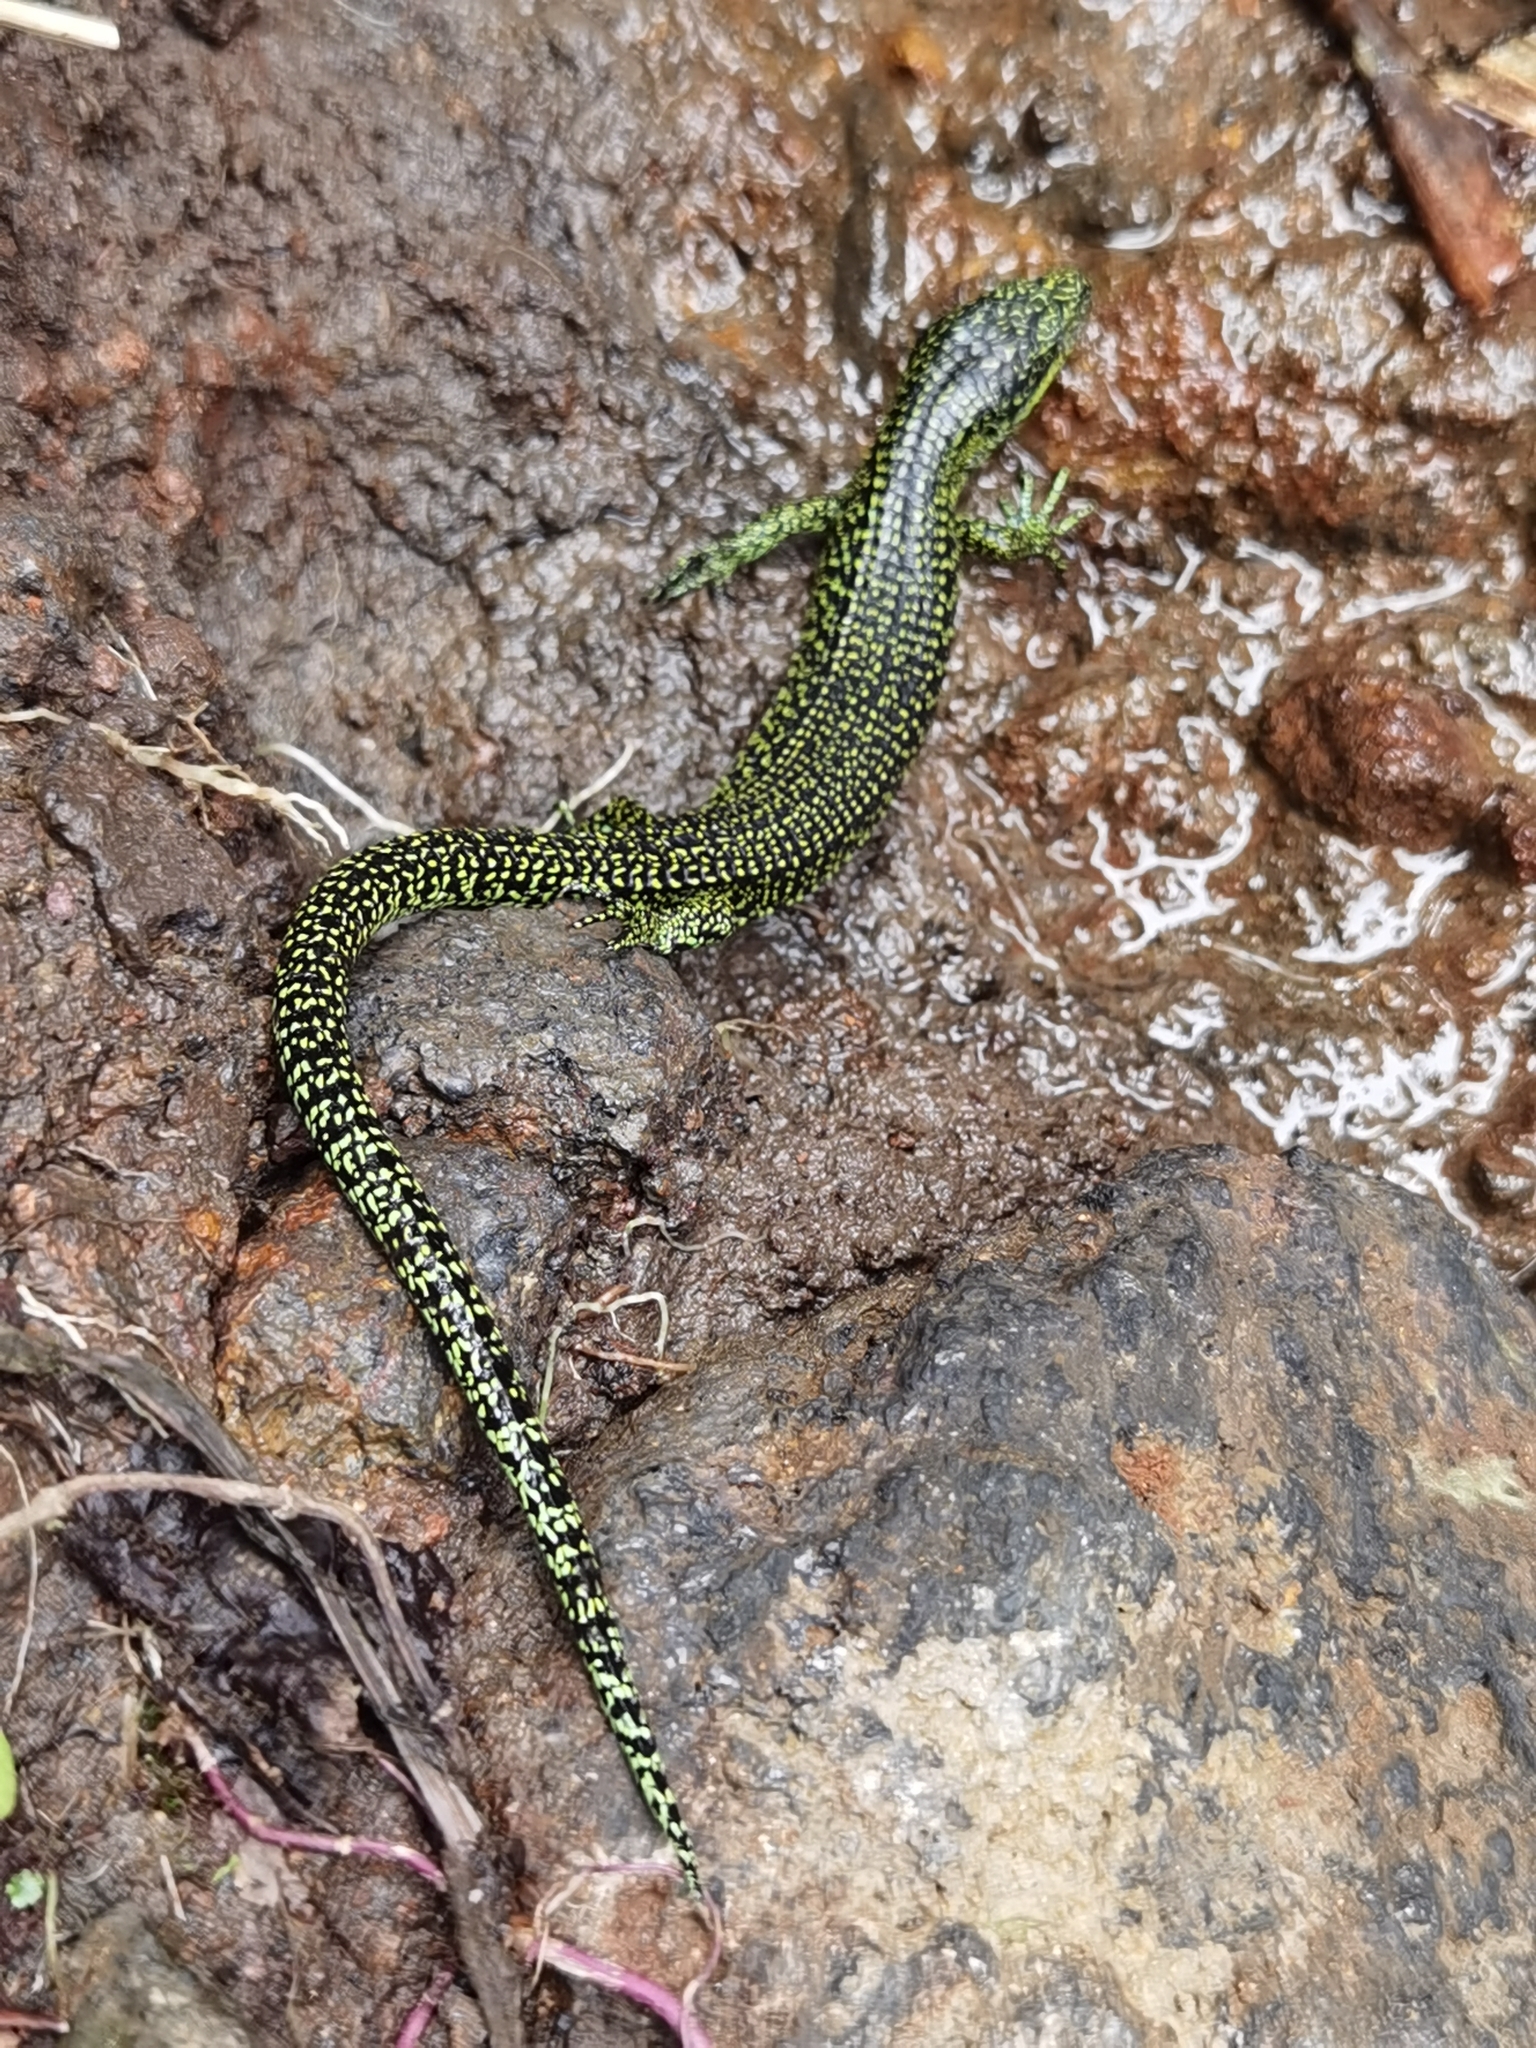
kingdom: Animalia
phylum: Chordata
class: Squamata
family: Anguidae
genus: Abronia
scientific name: Abronia monticola
